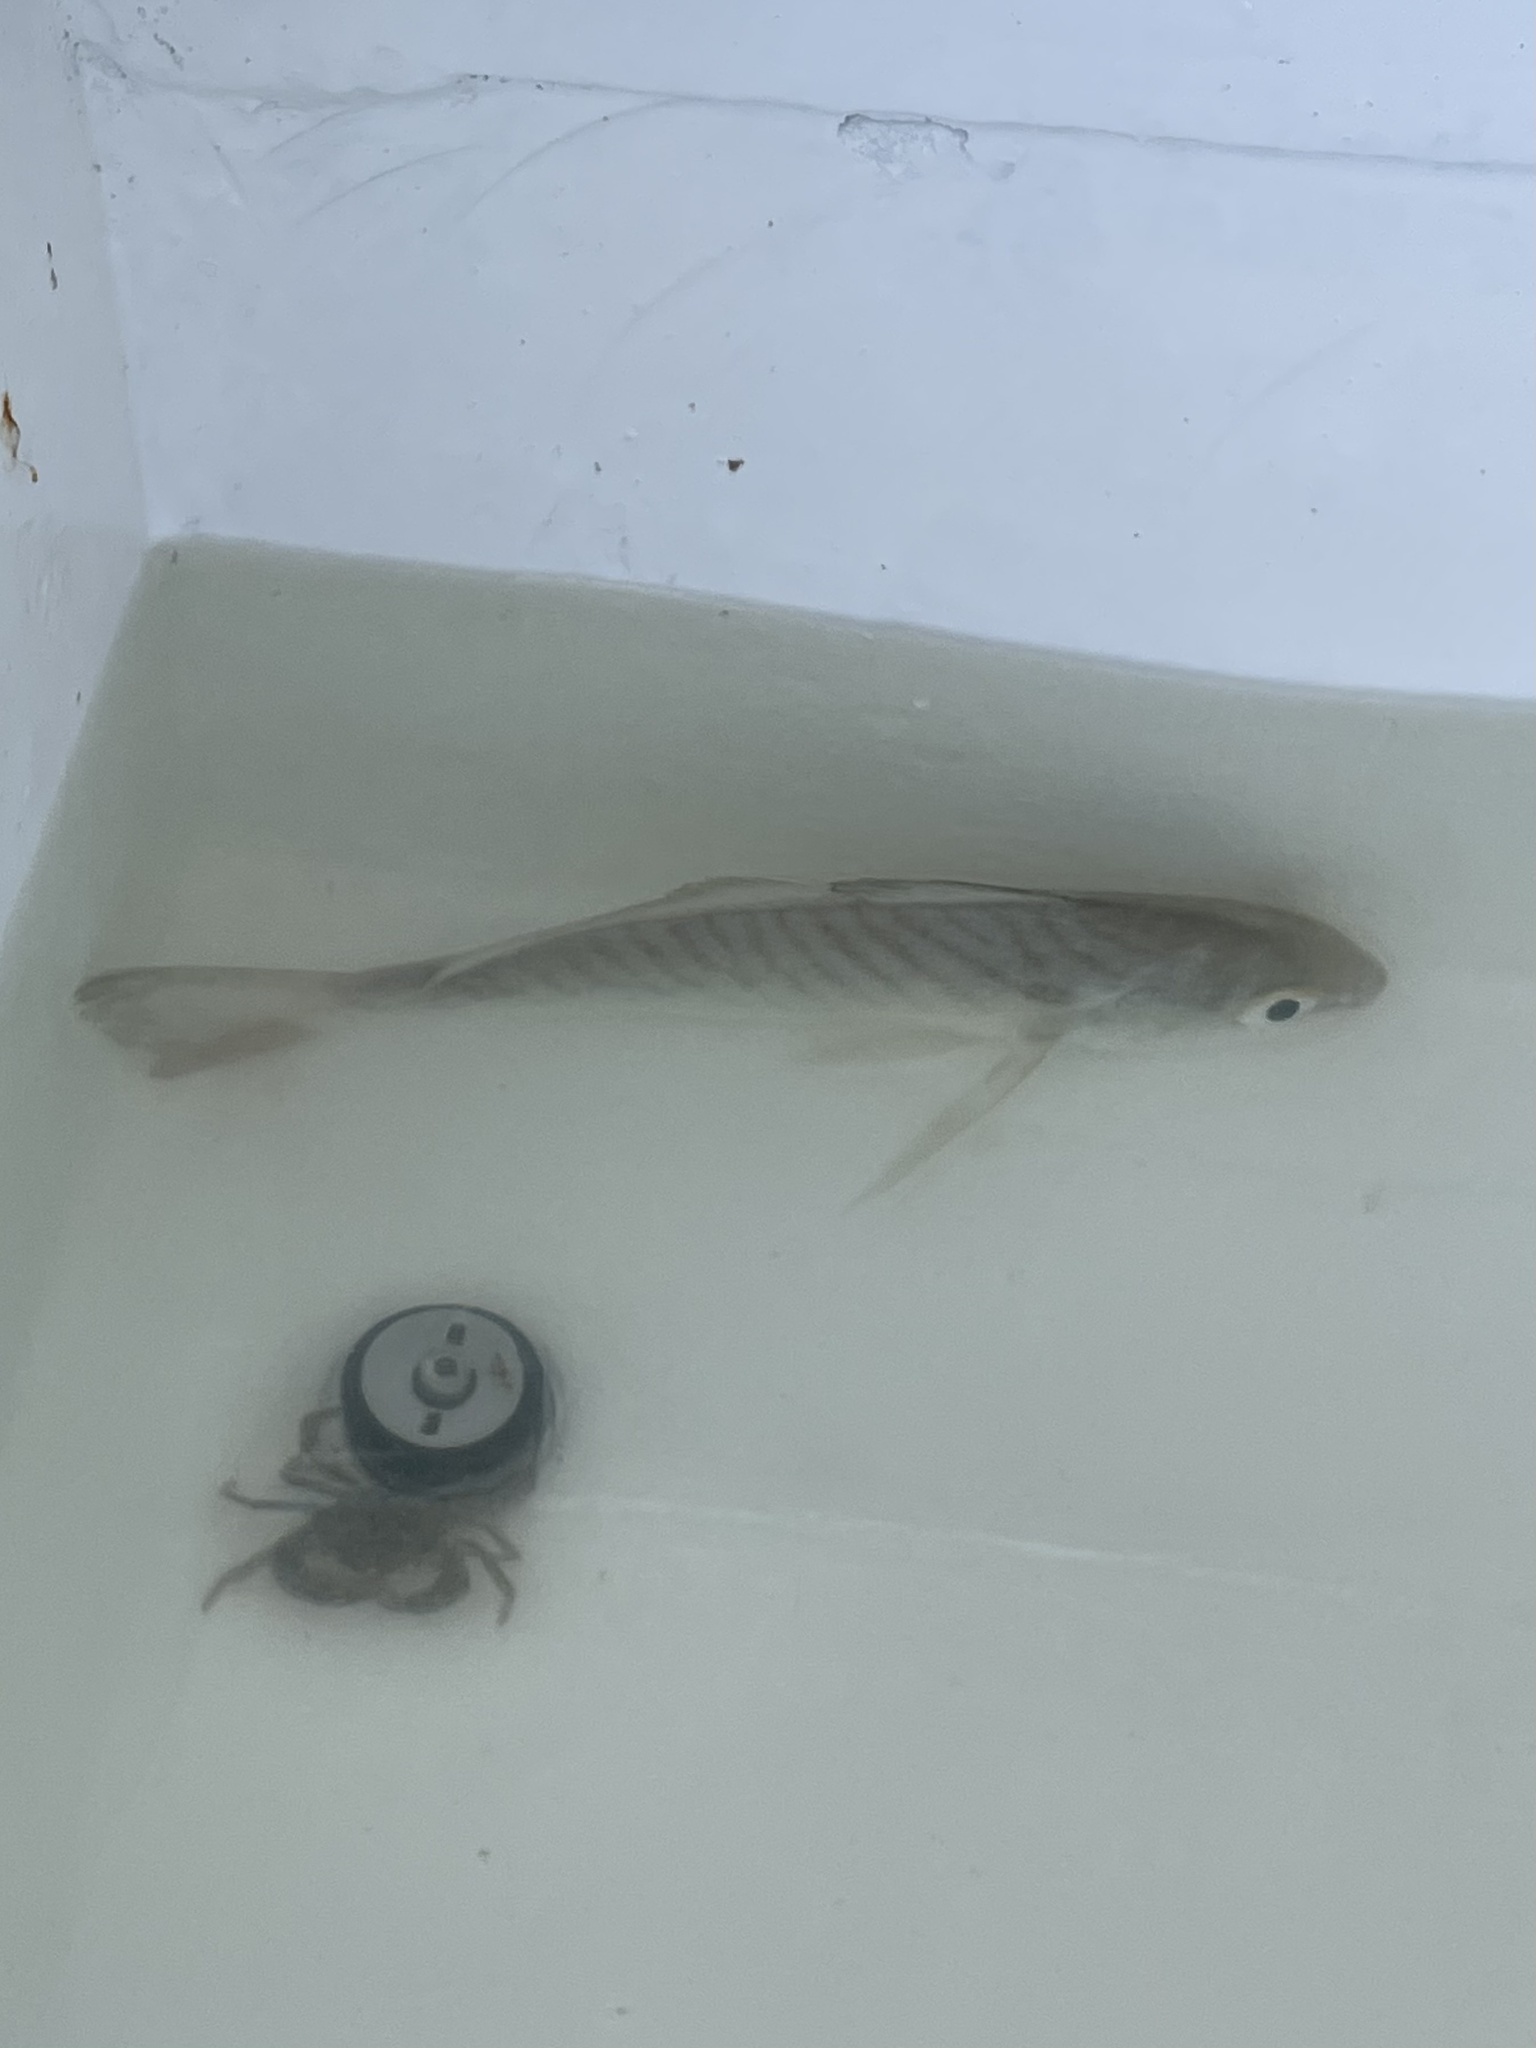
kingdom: Animalia
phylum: Chordata
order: Perciformes
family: Sciaenidae
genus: Leiostomus
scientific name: Leiostomus xanthurus
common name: Spot
